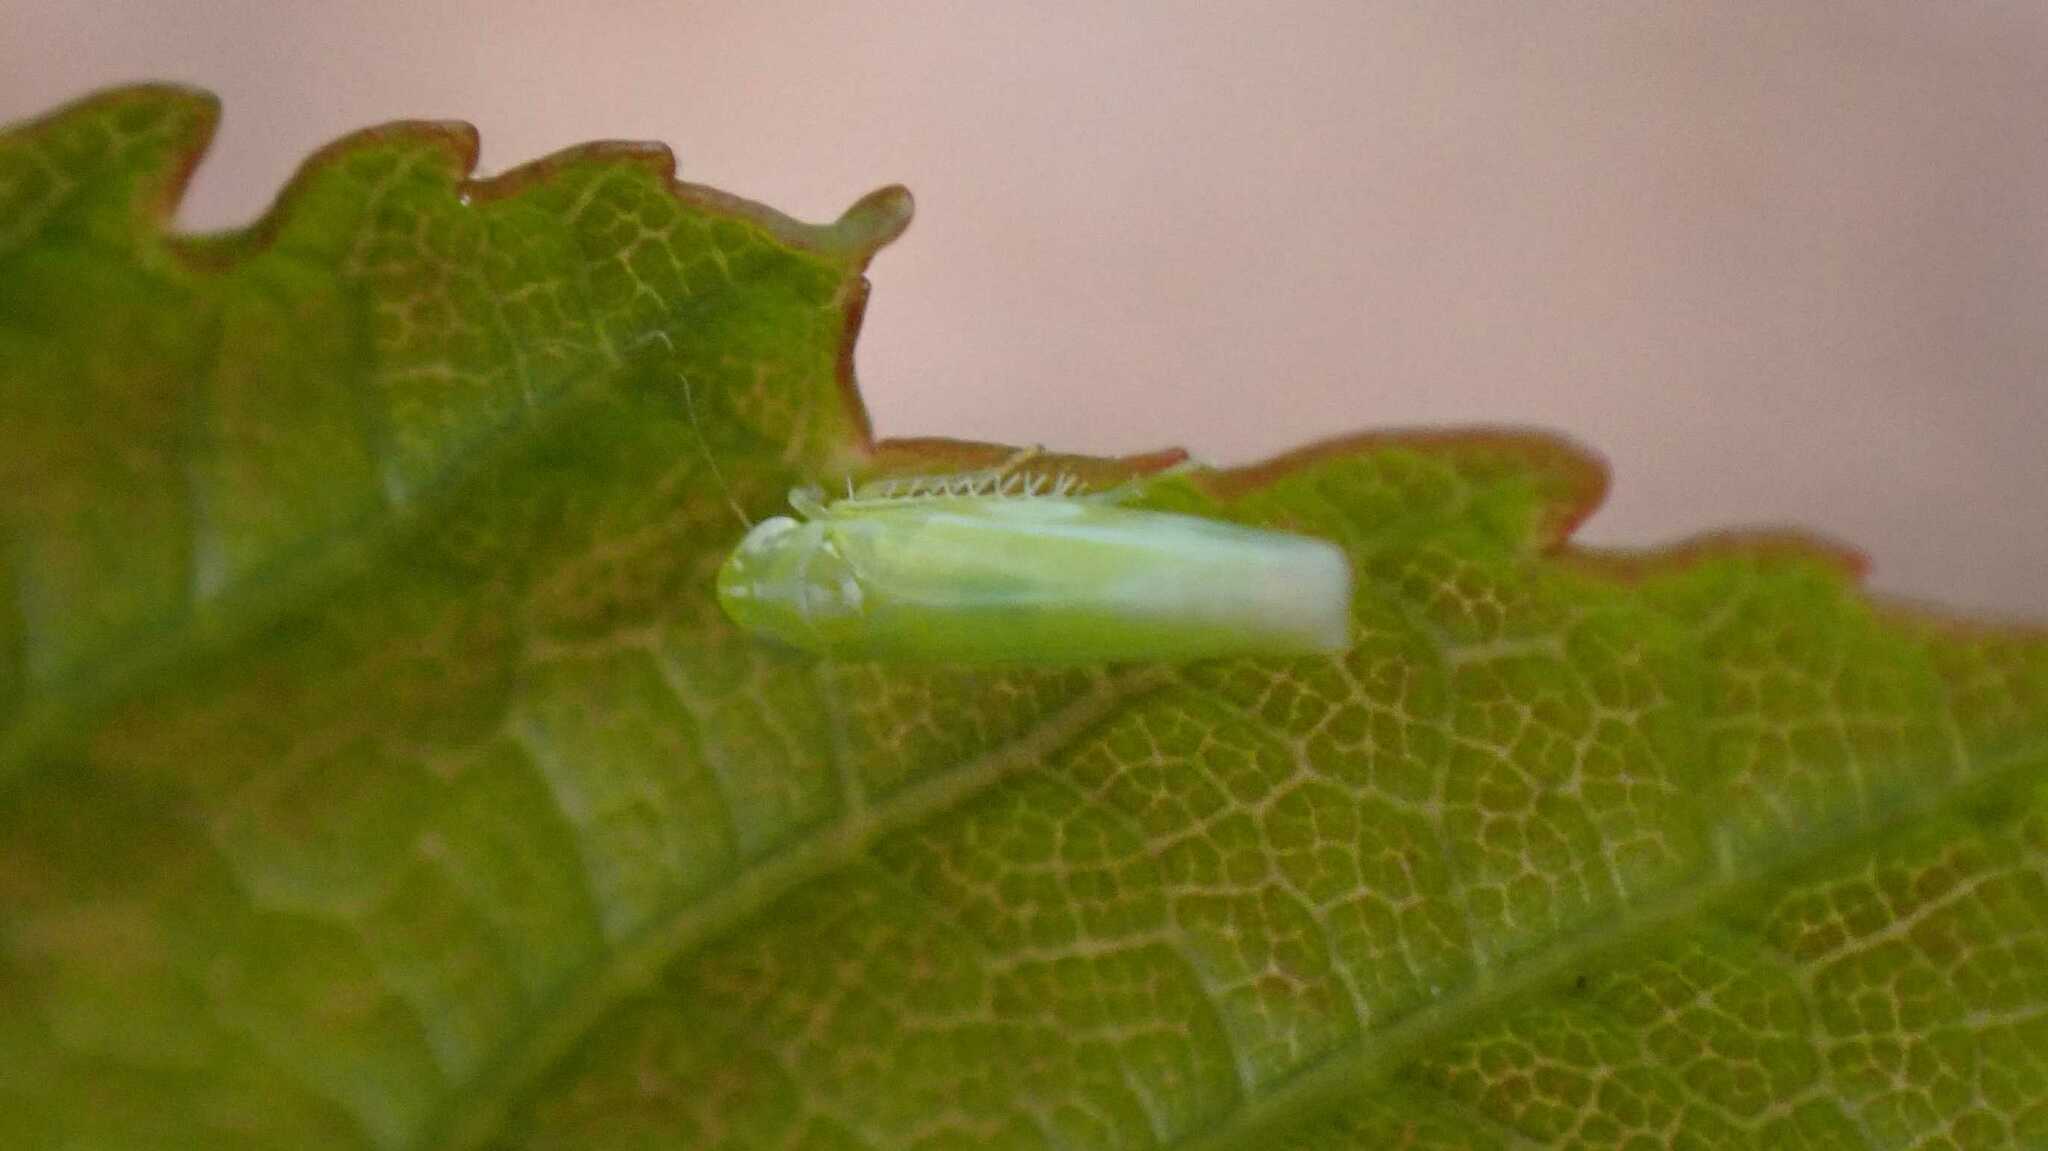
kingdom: Animalia
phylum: Arthropoda
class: Insecta
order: Hemiptera
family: Cicadellidae
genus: Hebata
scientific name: Hebata vitis
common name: The smaller green leafhopper
